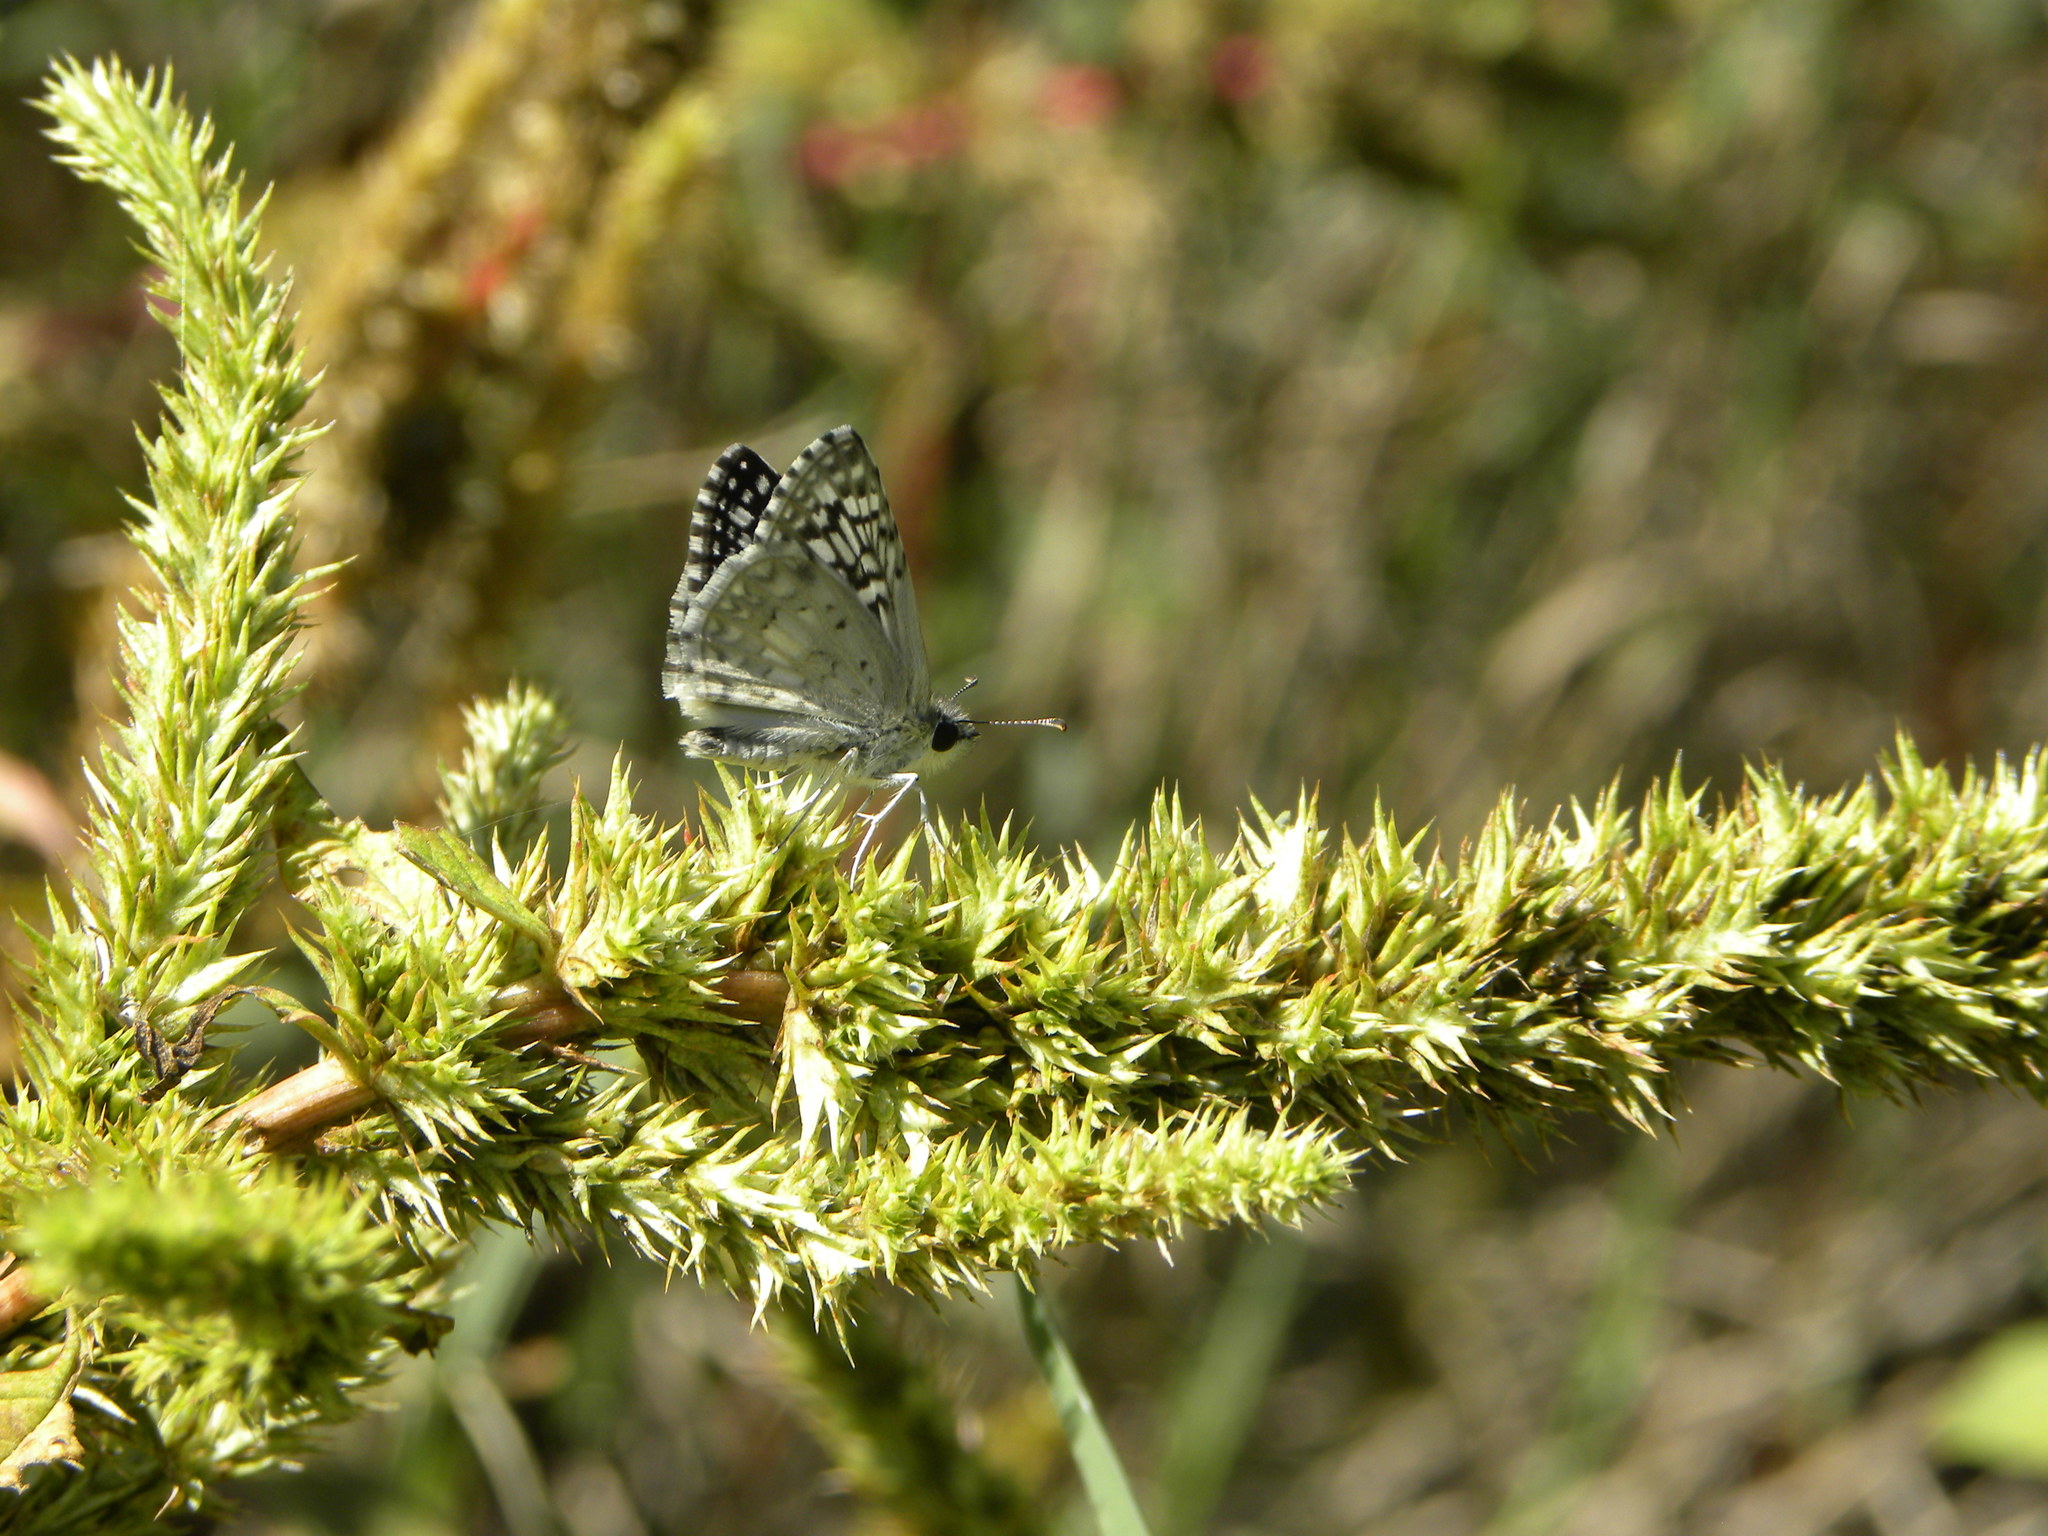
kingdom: Animalia
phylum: Arthropoda
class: Insecta
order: Lepidoptera
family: Hesperiidae
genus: Burnsius
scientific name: Burnsius philetas
